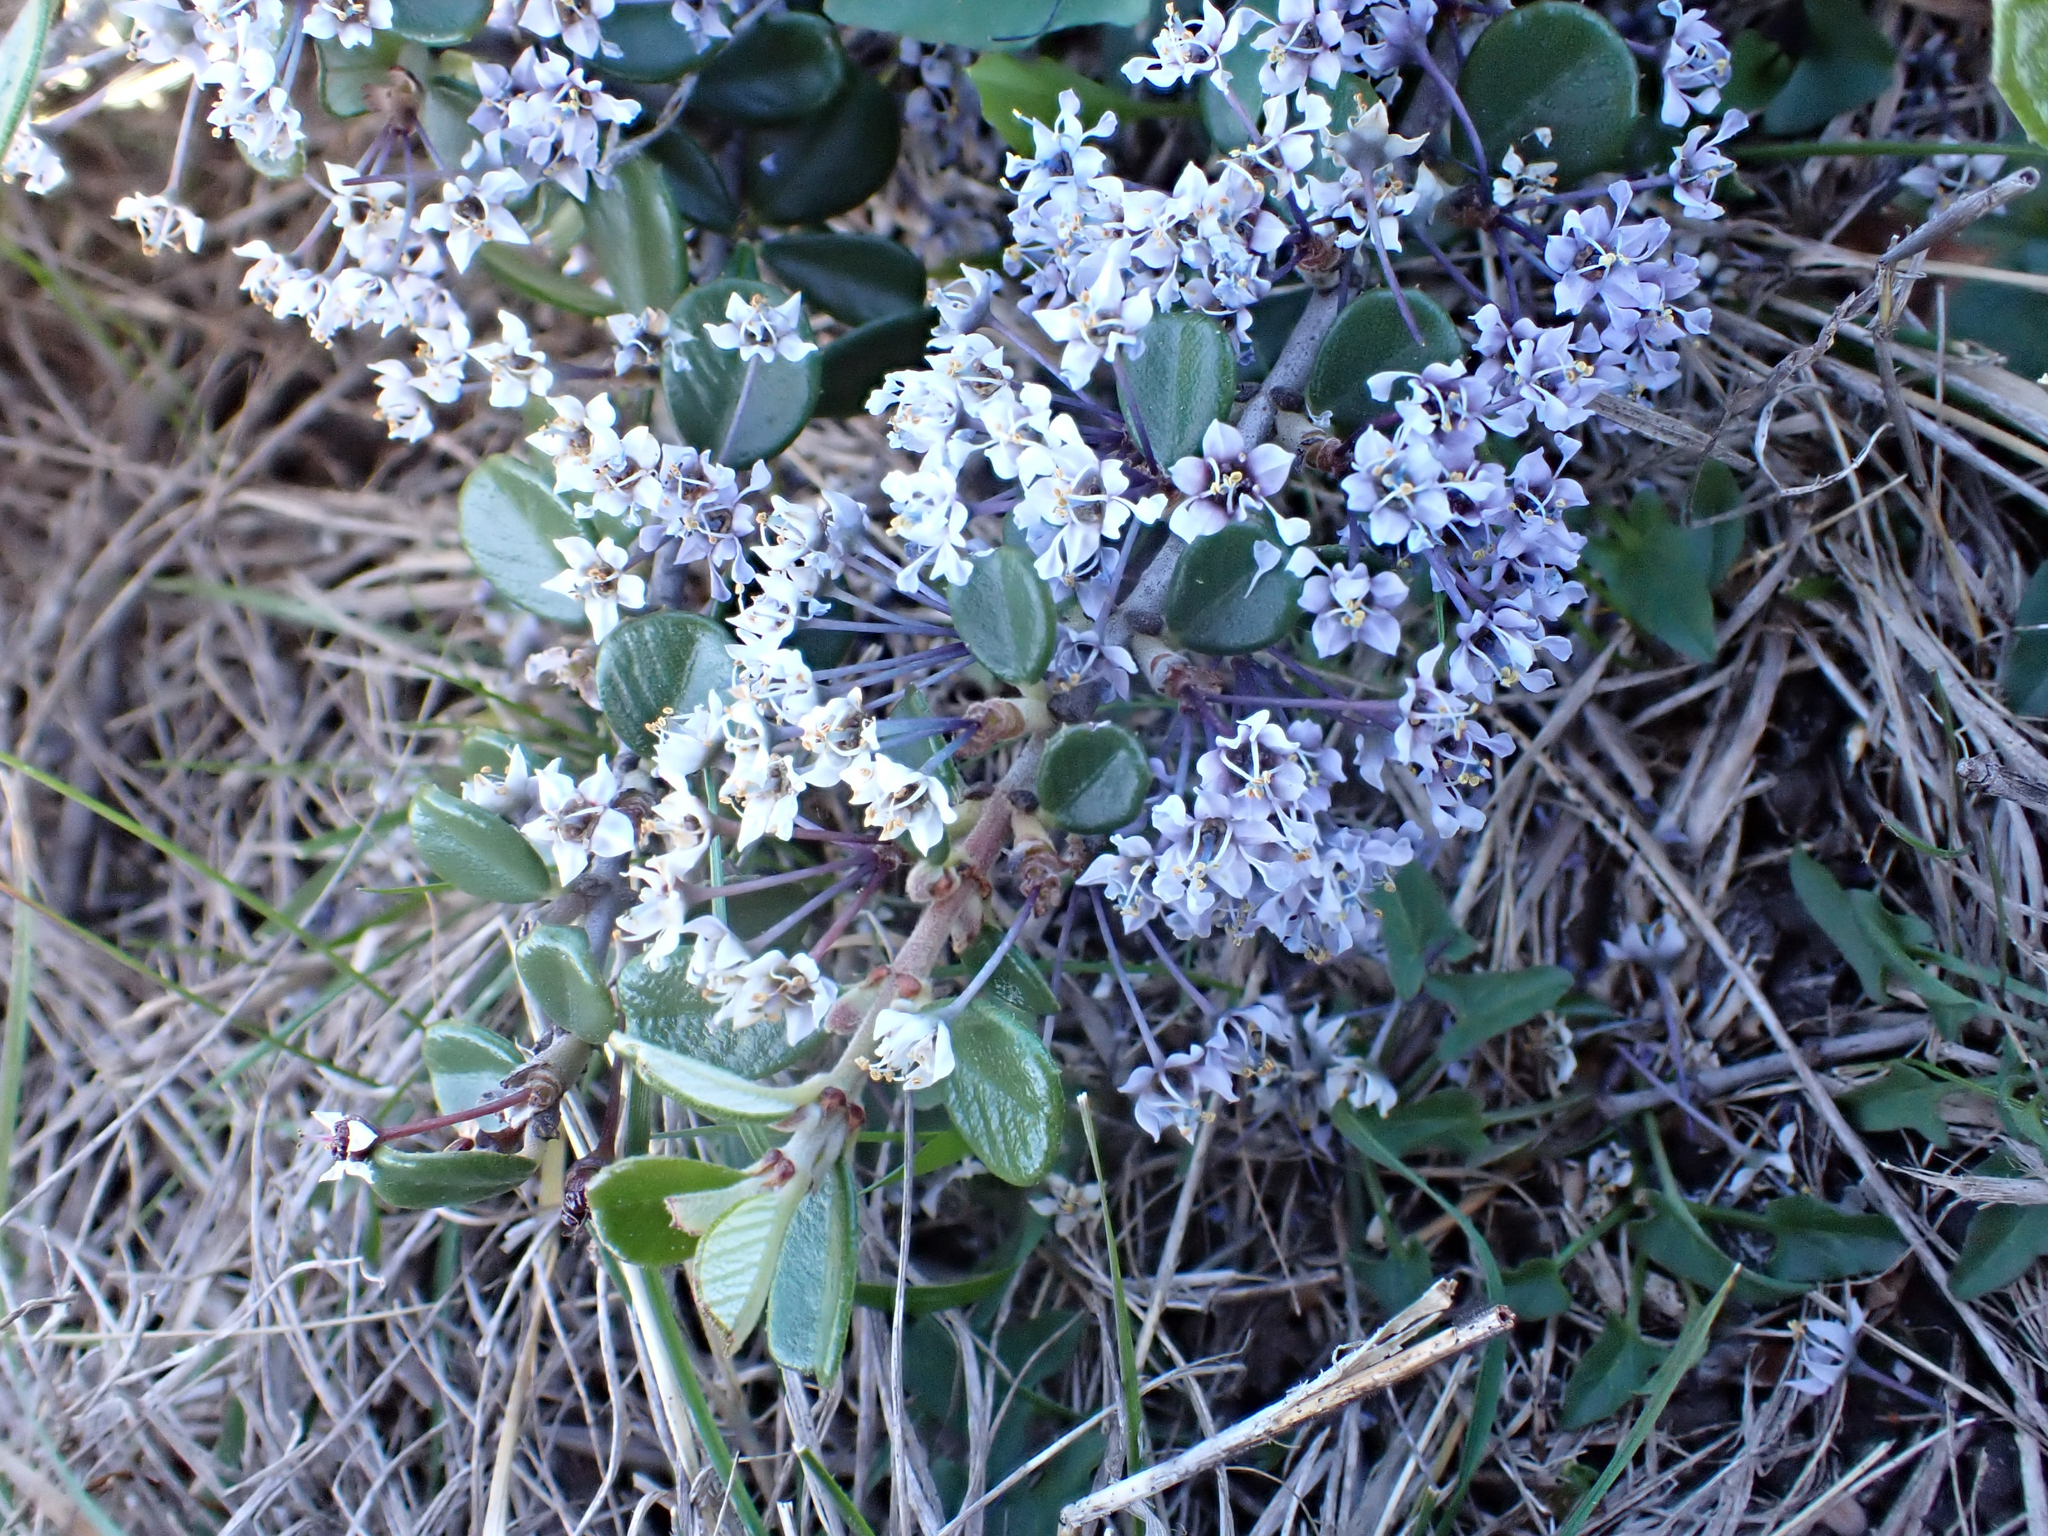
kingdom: Plantae
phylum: Tracheophyta
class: Magnoliopsida
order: Rosales
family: Rhamnaceae
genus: Ceanothus
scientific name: Ceanothus maritimus
